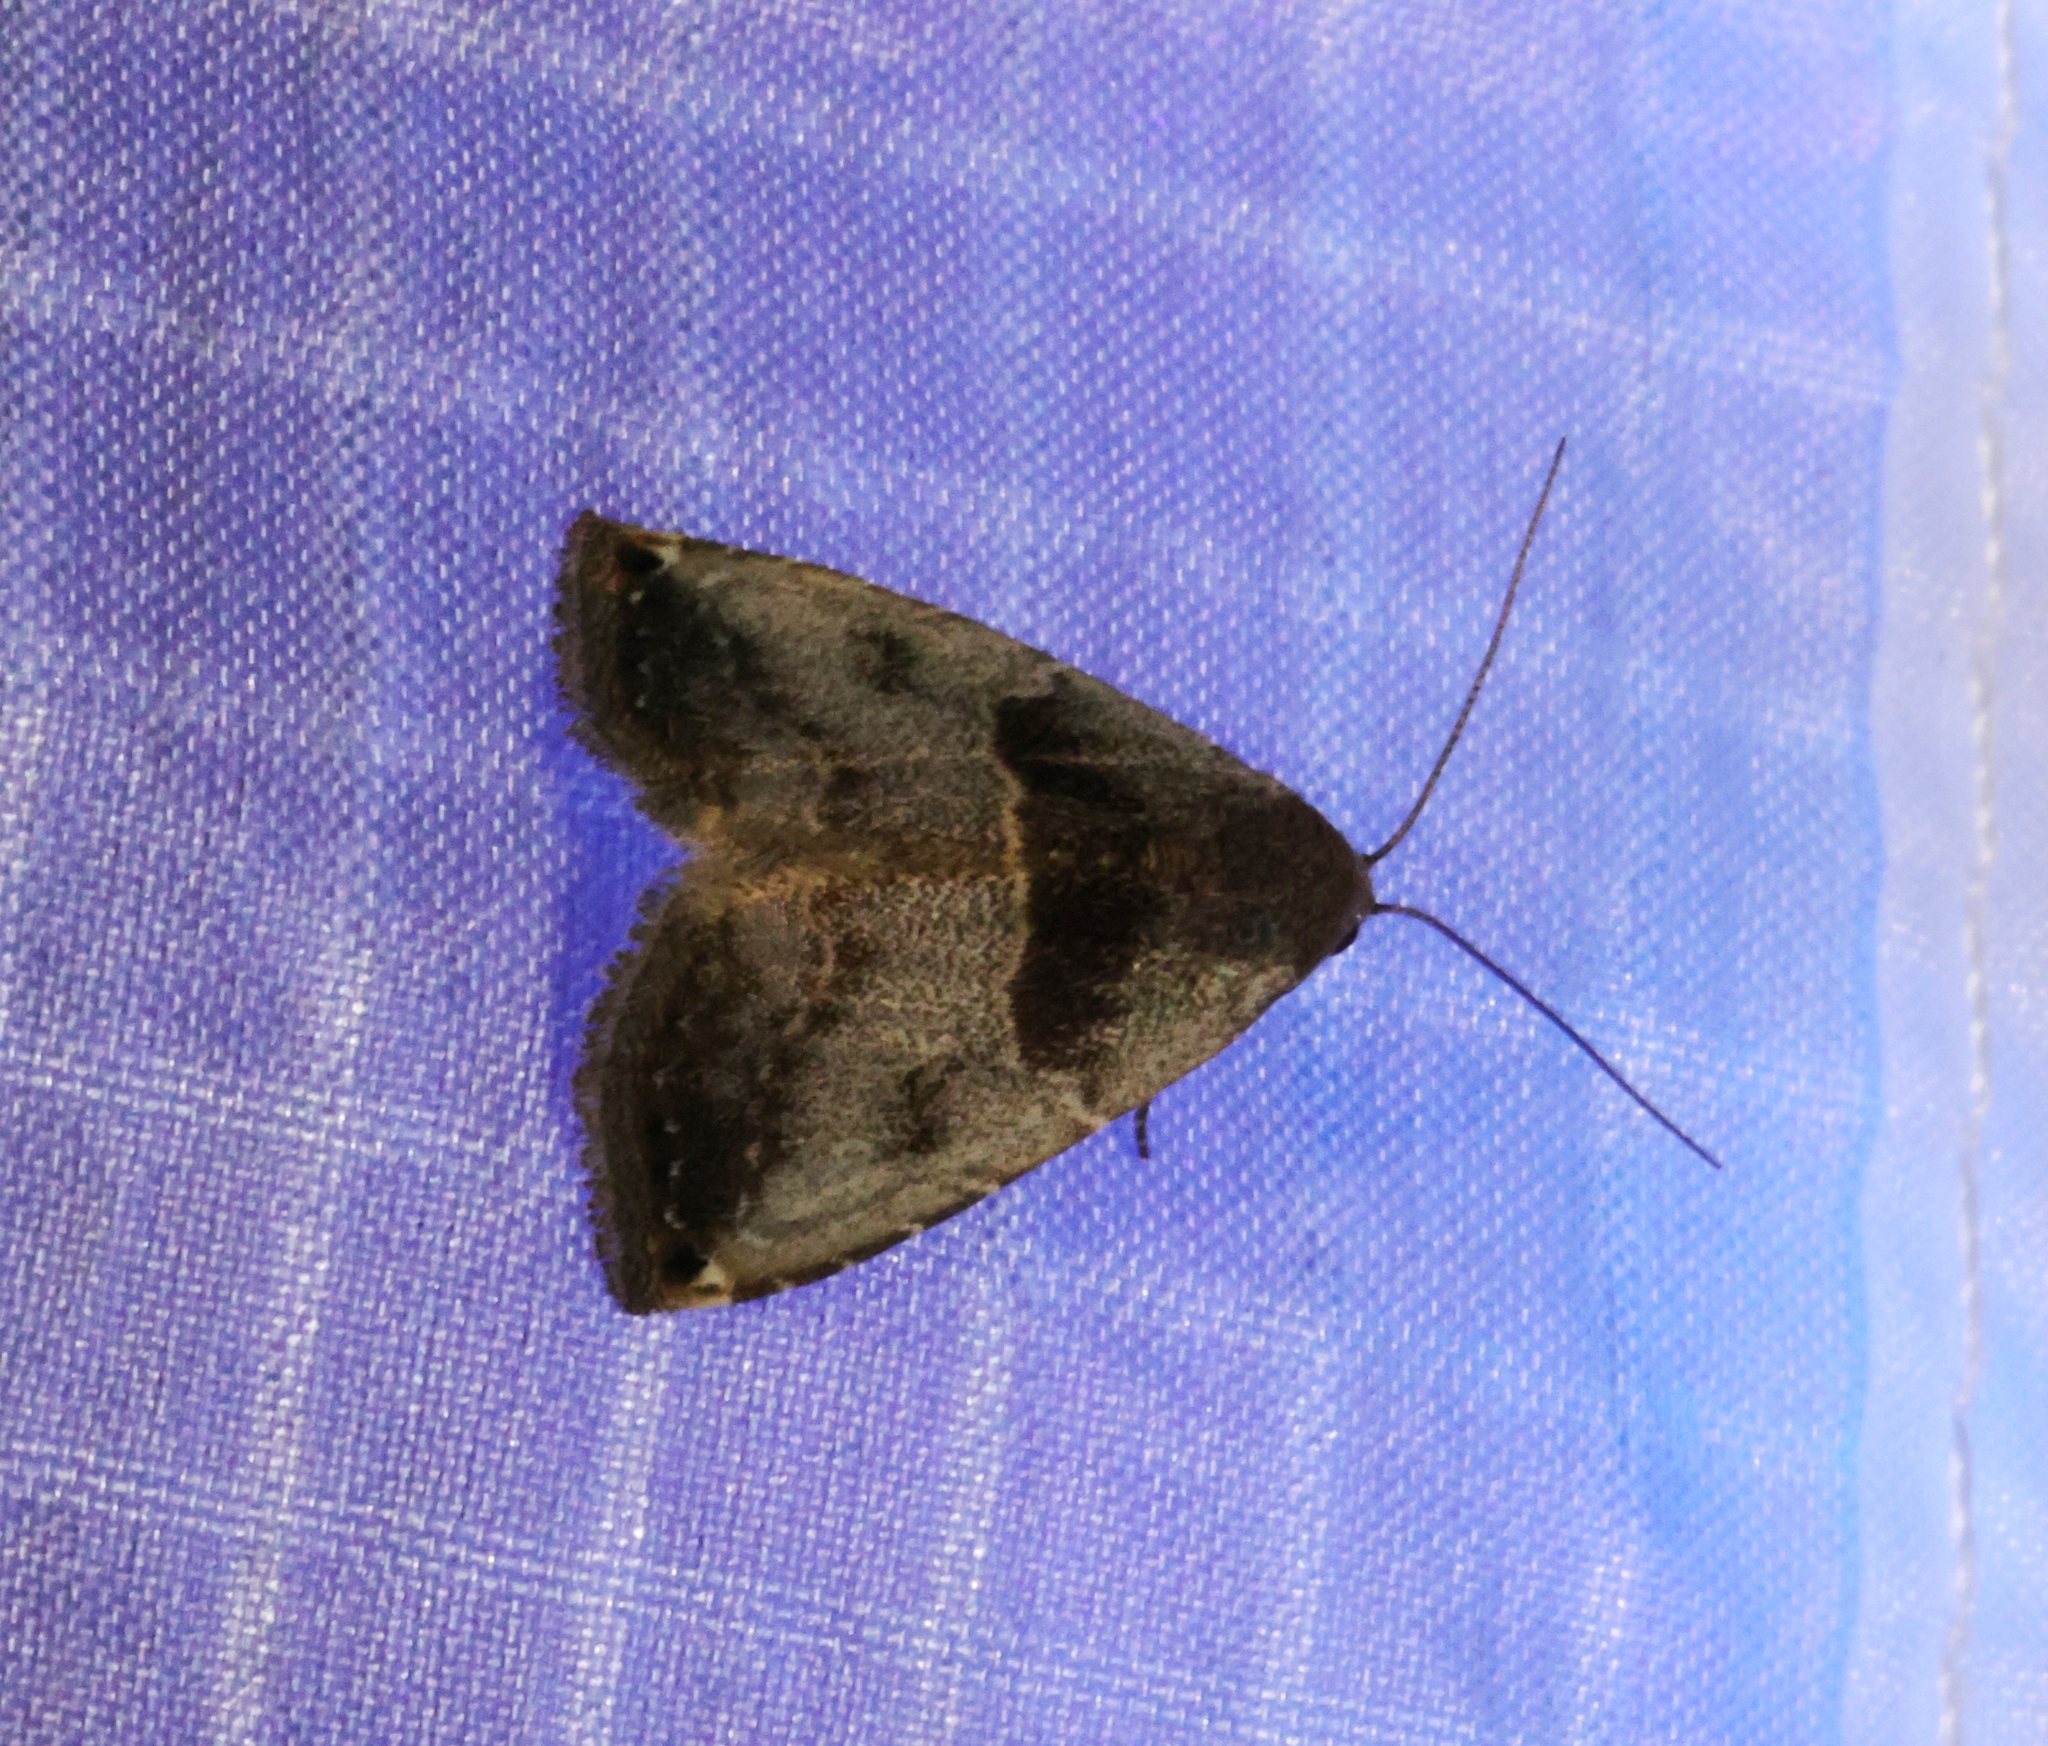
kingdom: Animalia
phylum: Arthropoda
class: Insecta
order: Lepidoptera
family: Erebidae
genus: Rivula
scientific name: Rivula basalis
